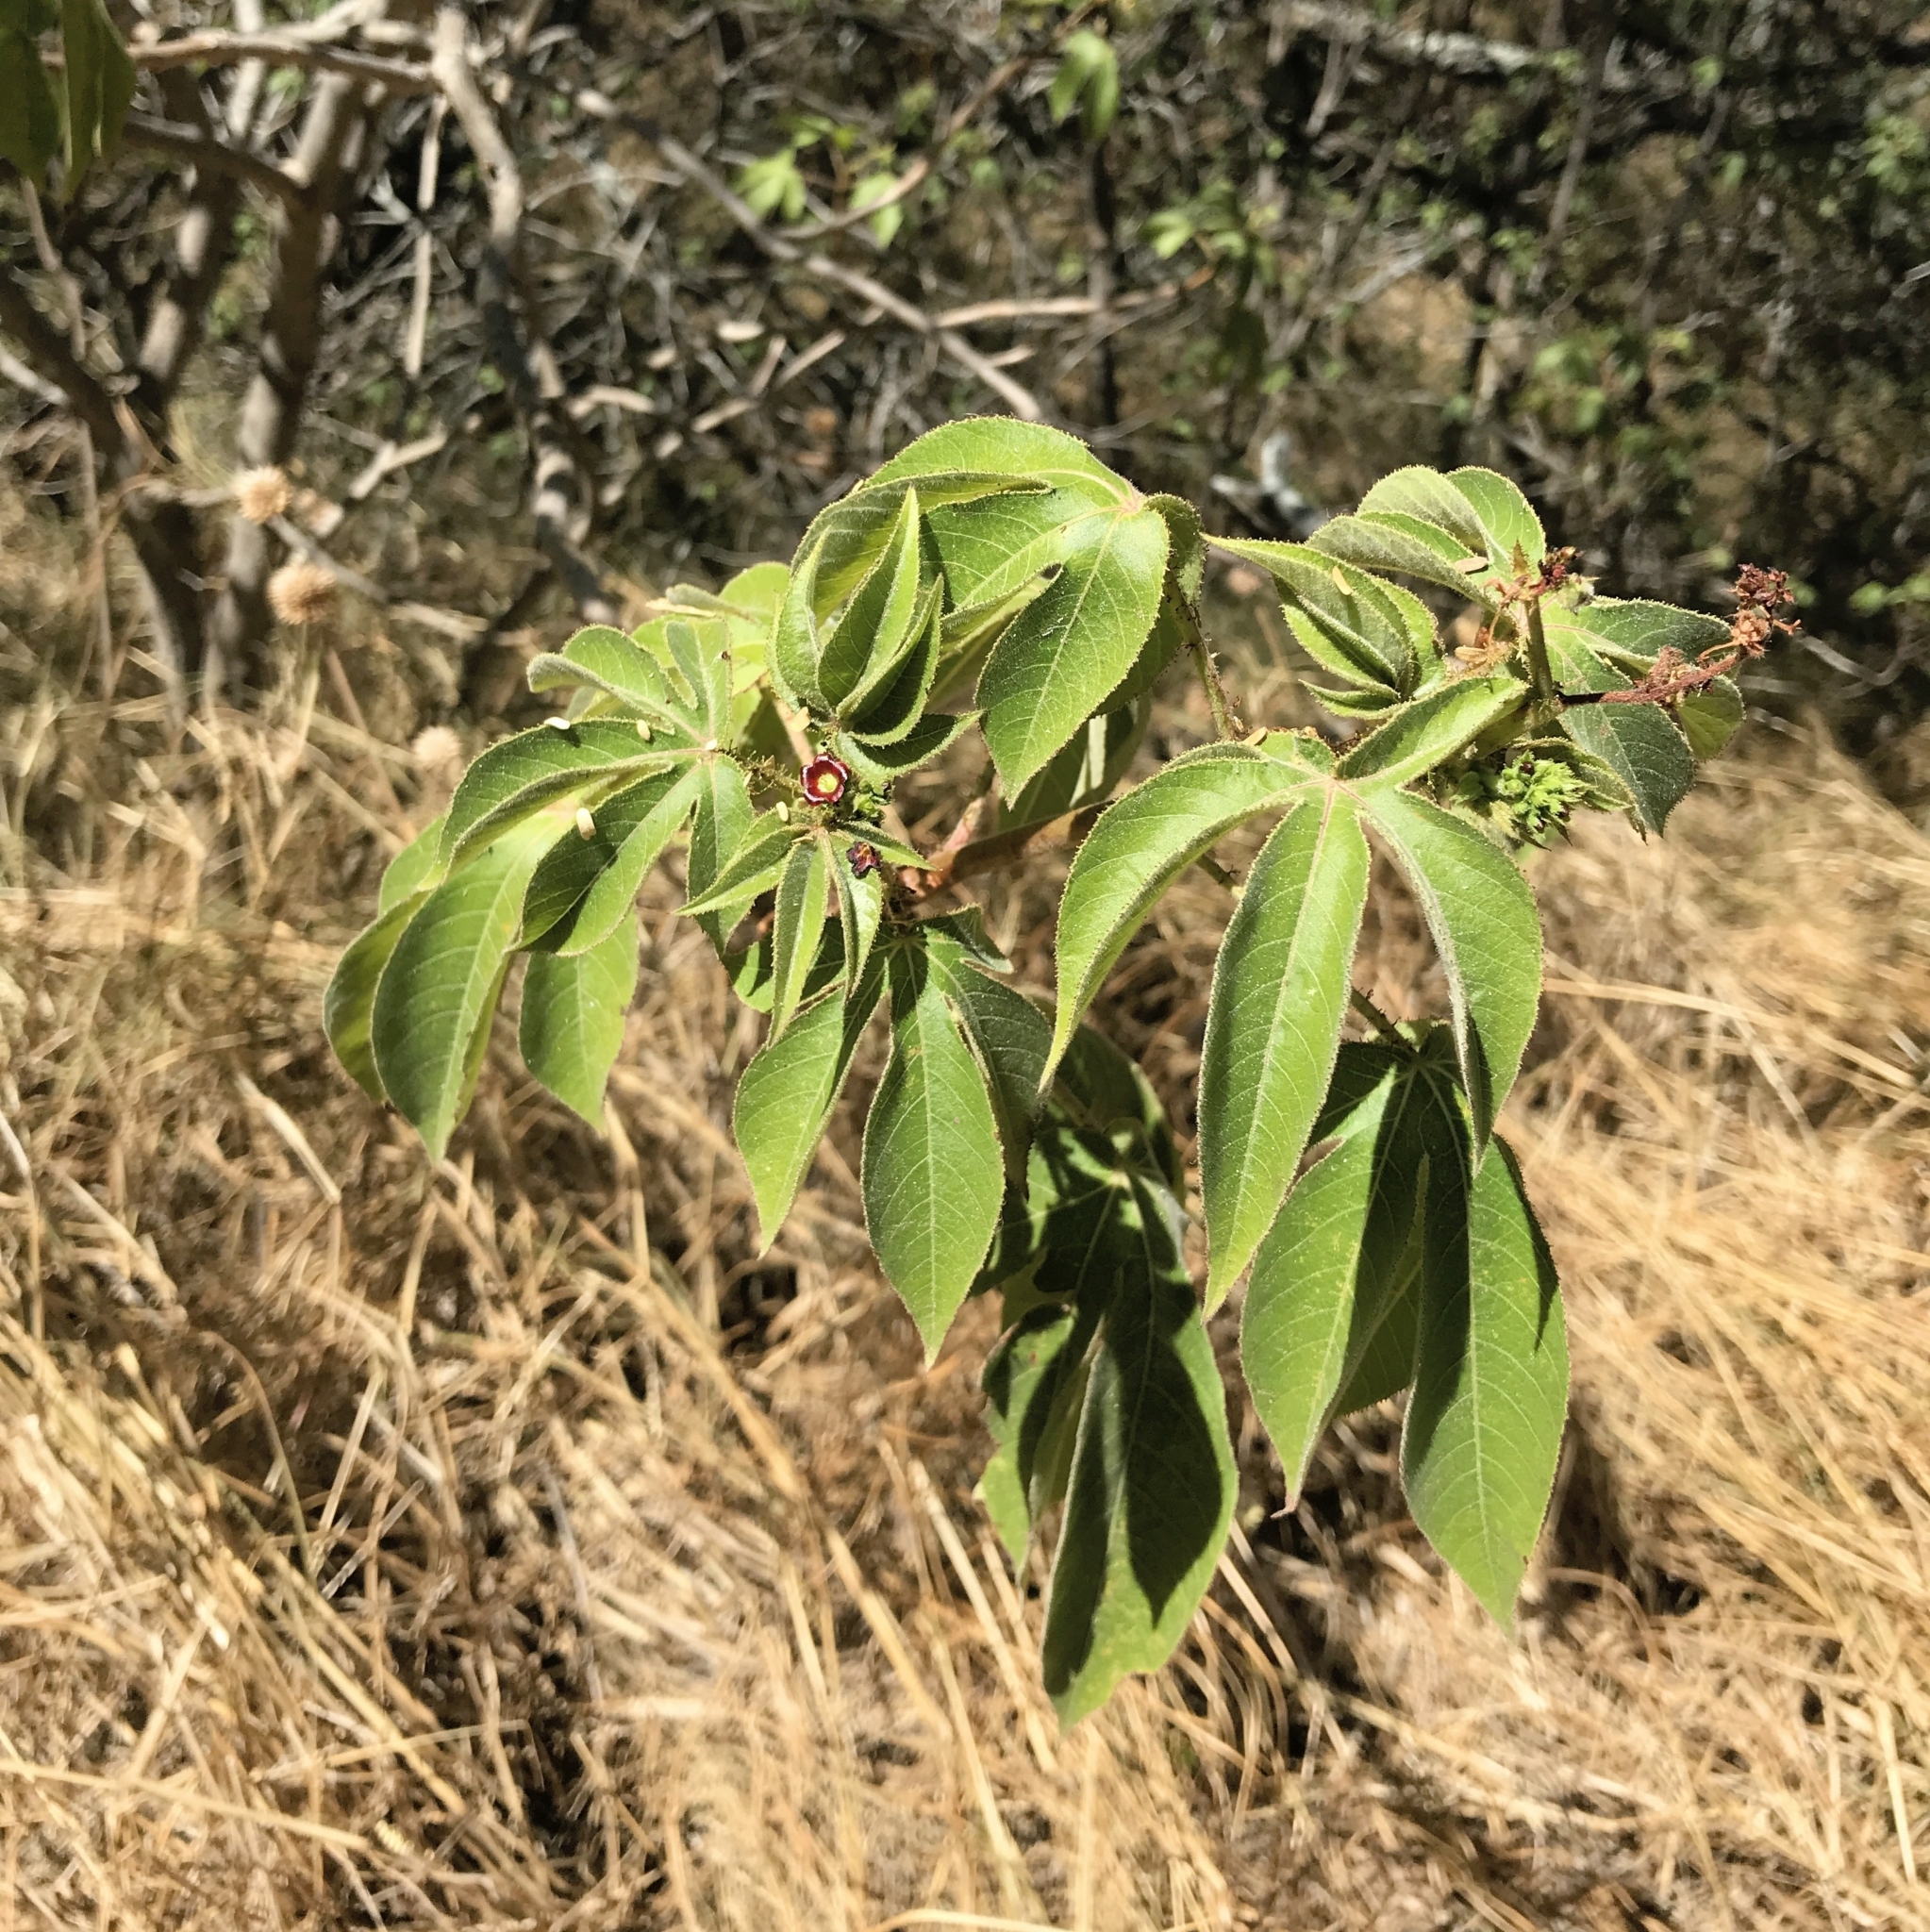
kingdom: Plantae
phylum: Tracheophyta
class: Magnoliopsida
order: Malpighiales
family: Euphorbiaceae
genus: Jatropha
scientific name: Jatropha gossypiifolia
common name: Bellyache bush
